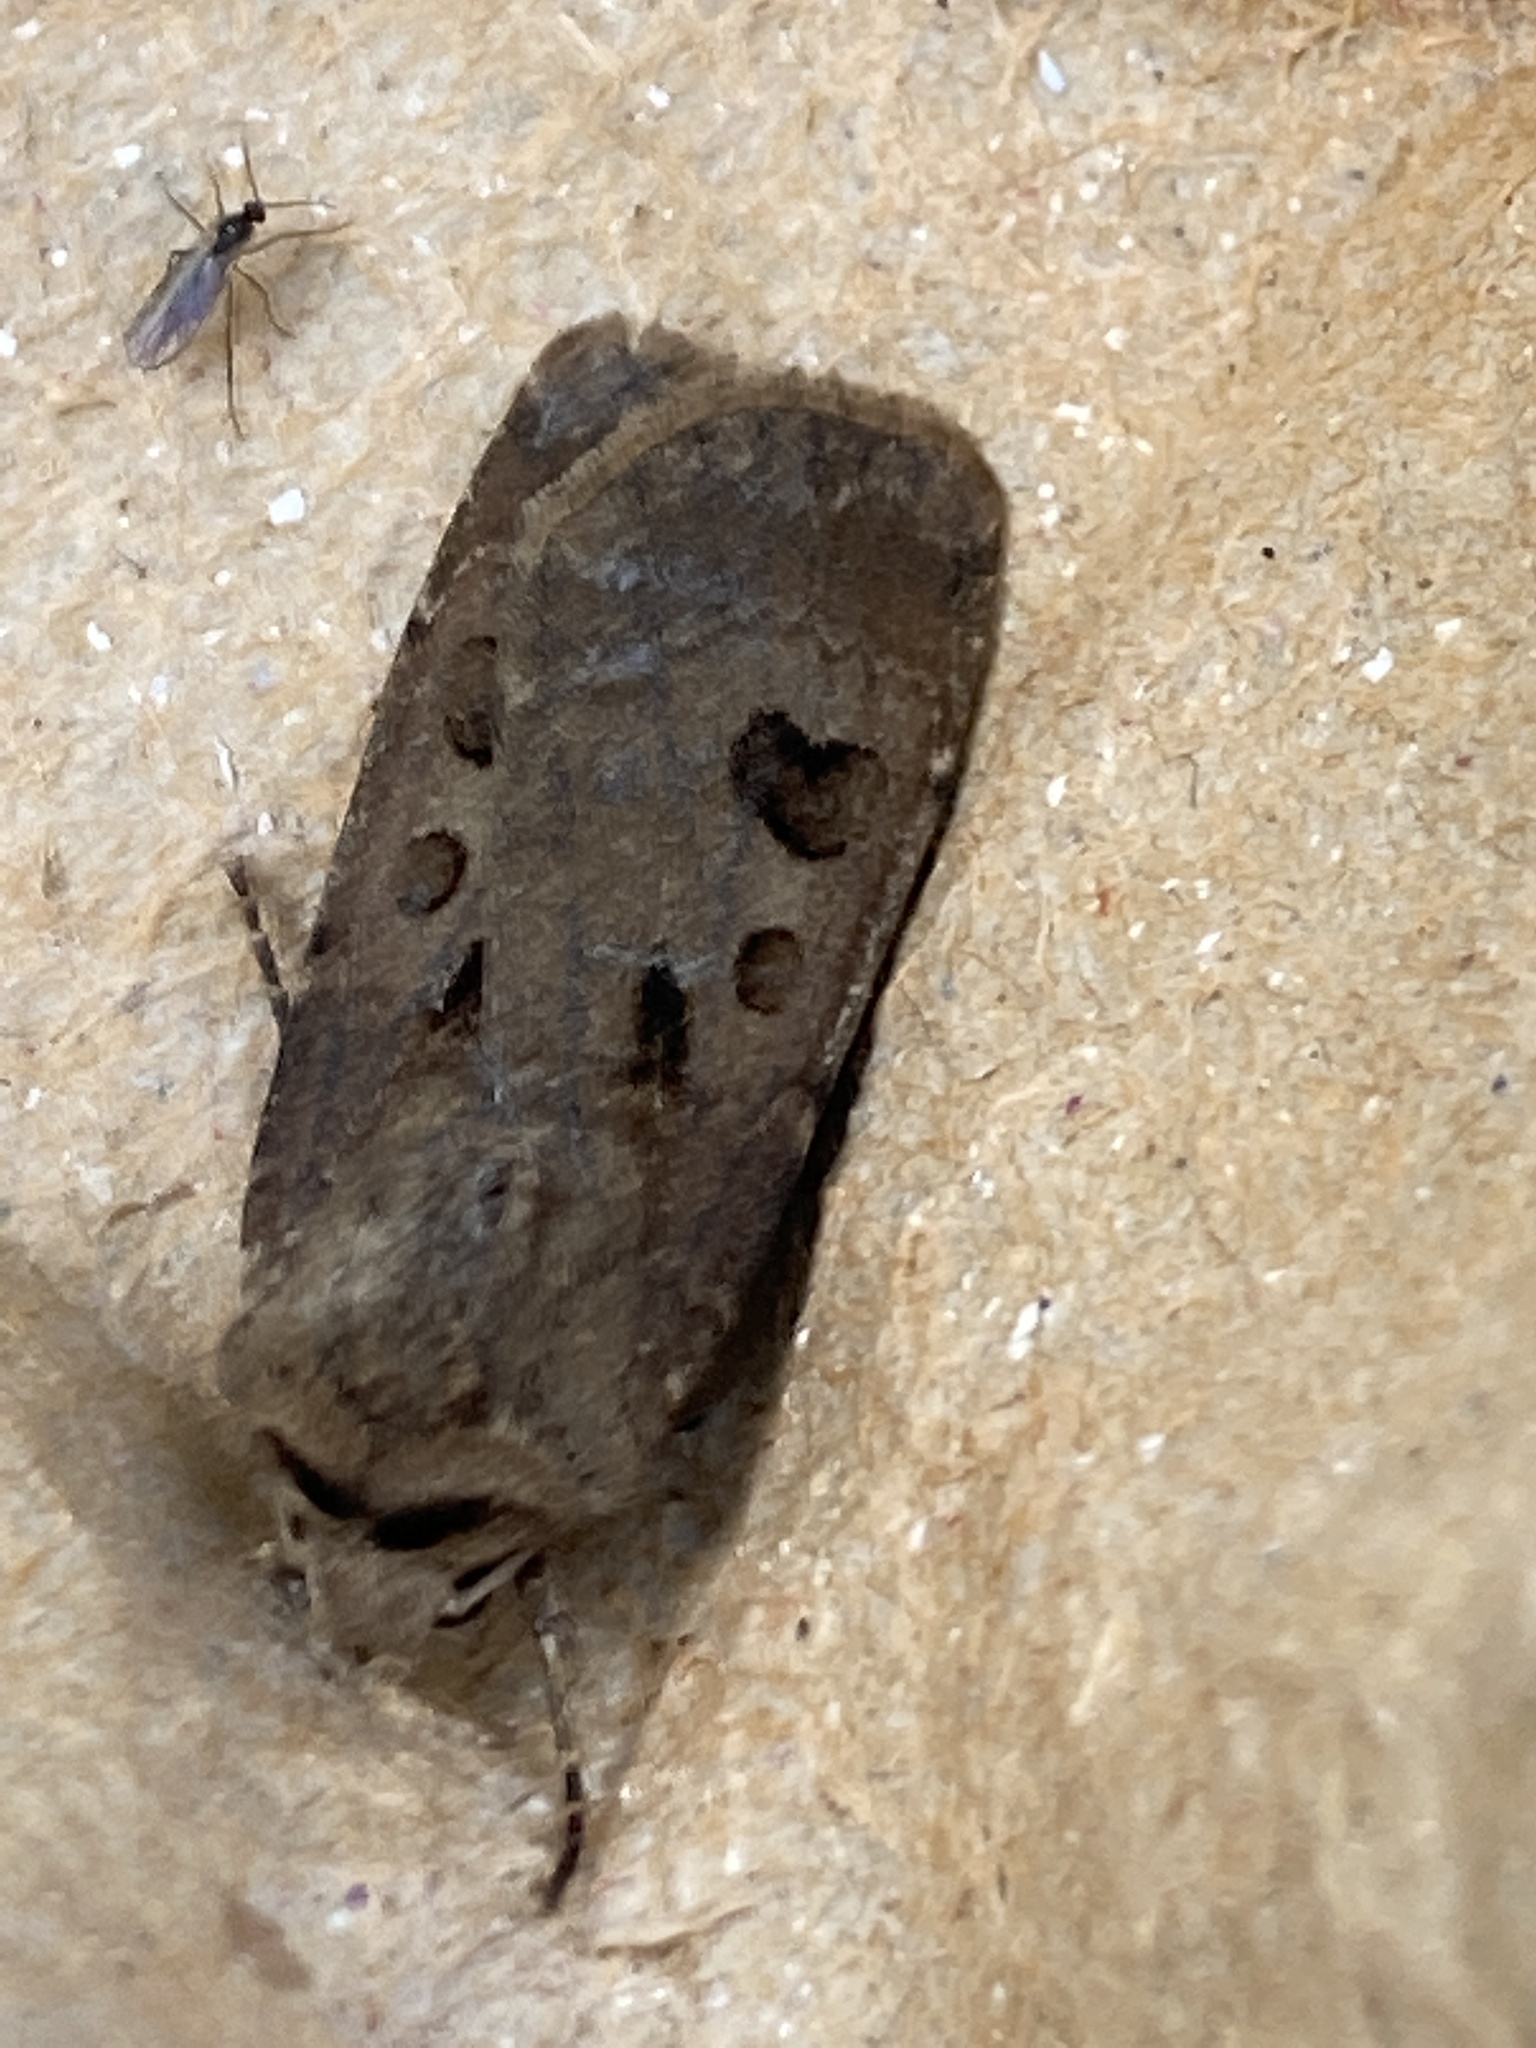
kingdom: Animalia
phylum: Arthropoda
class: Insecta
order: Lepidoptera
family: Noctuidae
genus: Agrotis
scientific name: Agrotis exclamationis
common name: Heart and dart
